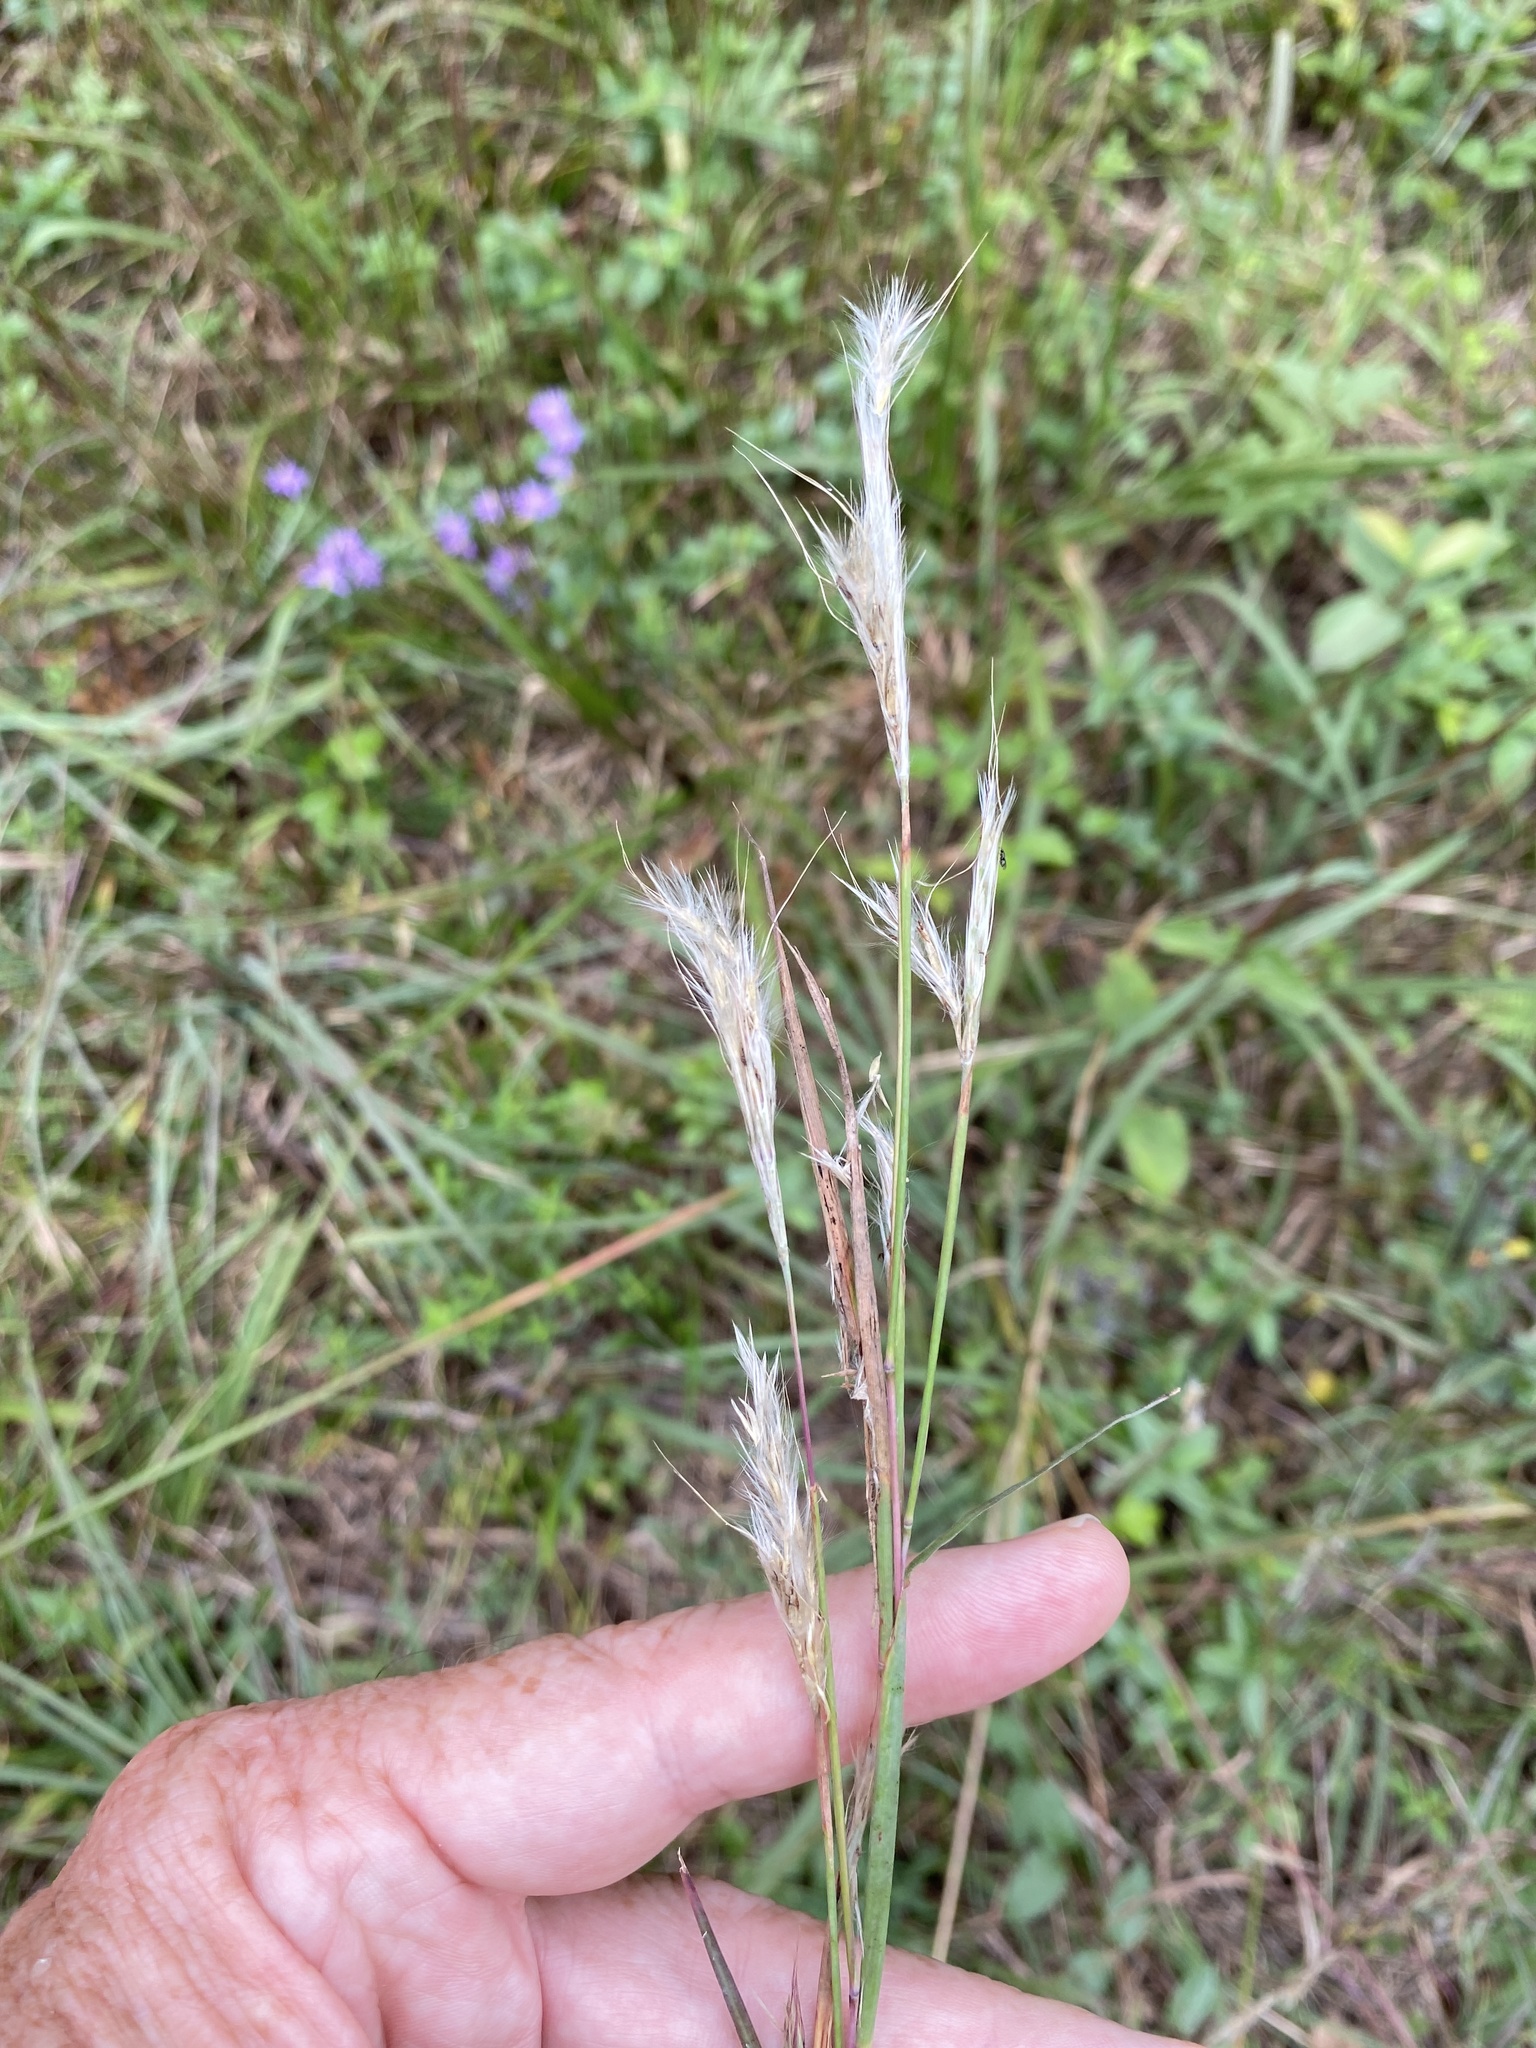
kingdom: Plantae
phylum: Tracheophyta
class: Liliopsida
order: Poales
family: Poaceae
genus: Andropogon
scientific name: Andropogon ternarius
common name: Split bluestem
